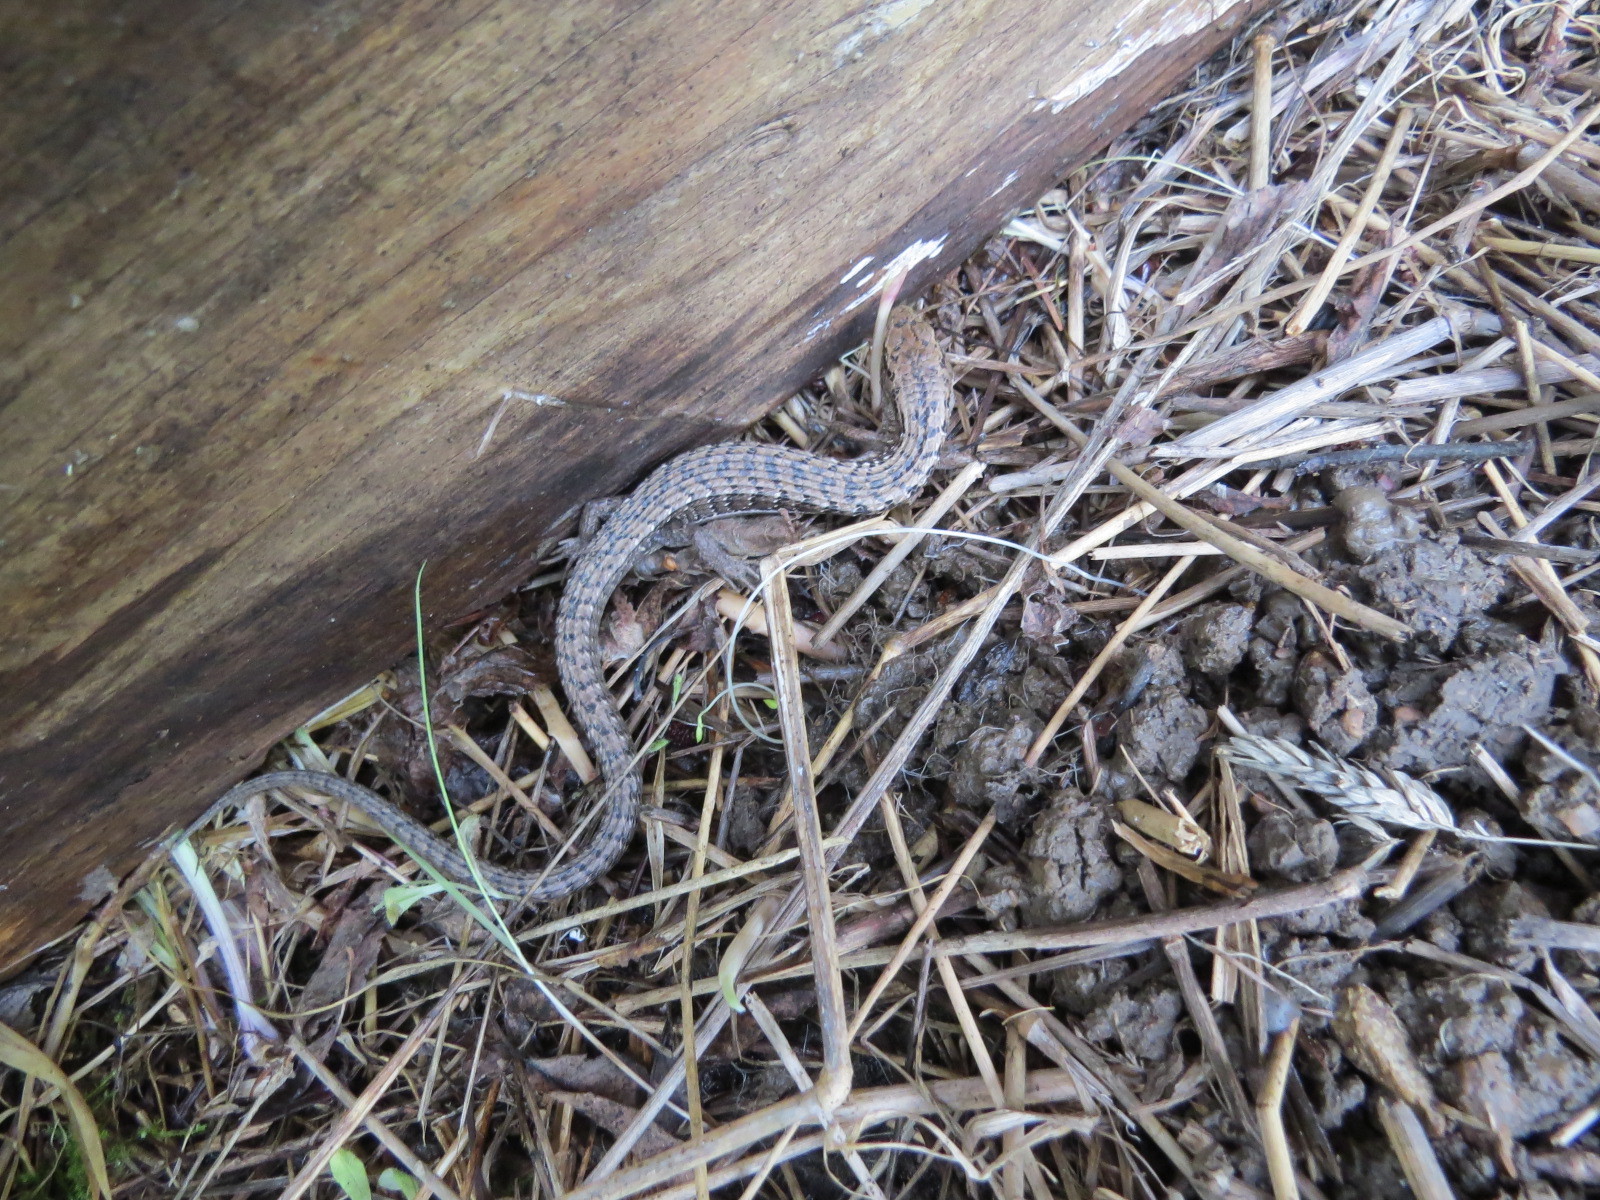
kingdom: Animalia
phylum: Chordata
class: Squamata
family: Anguidae
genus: Elgaria
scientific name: Elgaria coerulea
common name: Northern alligator lizard
